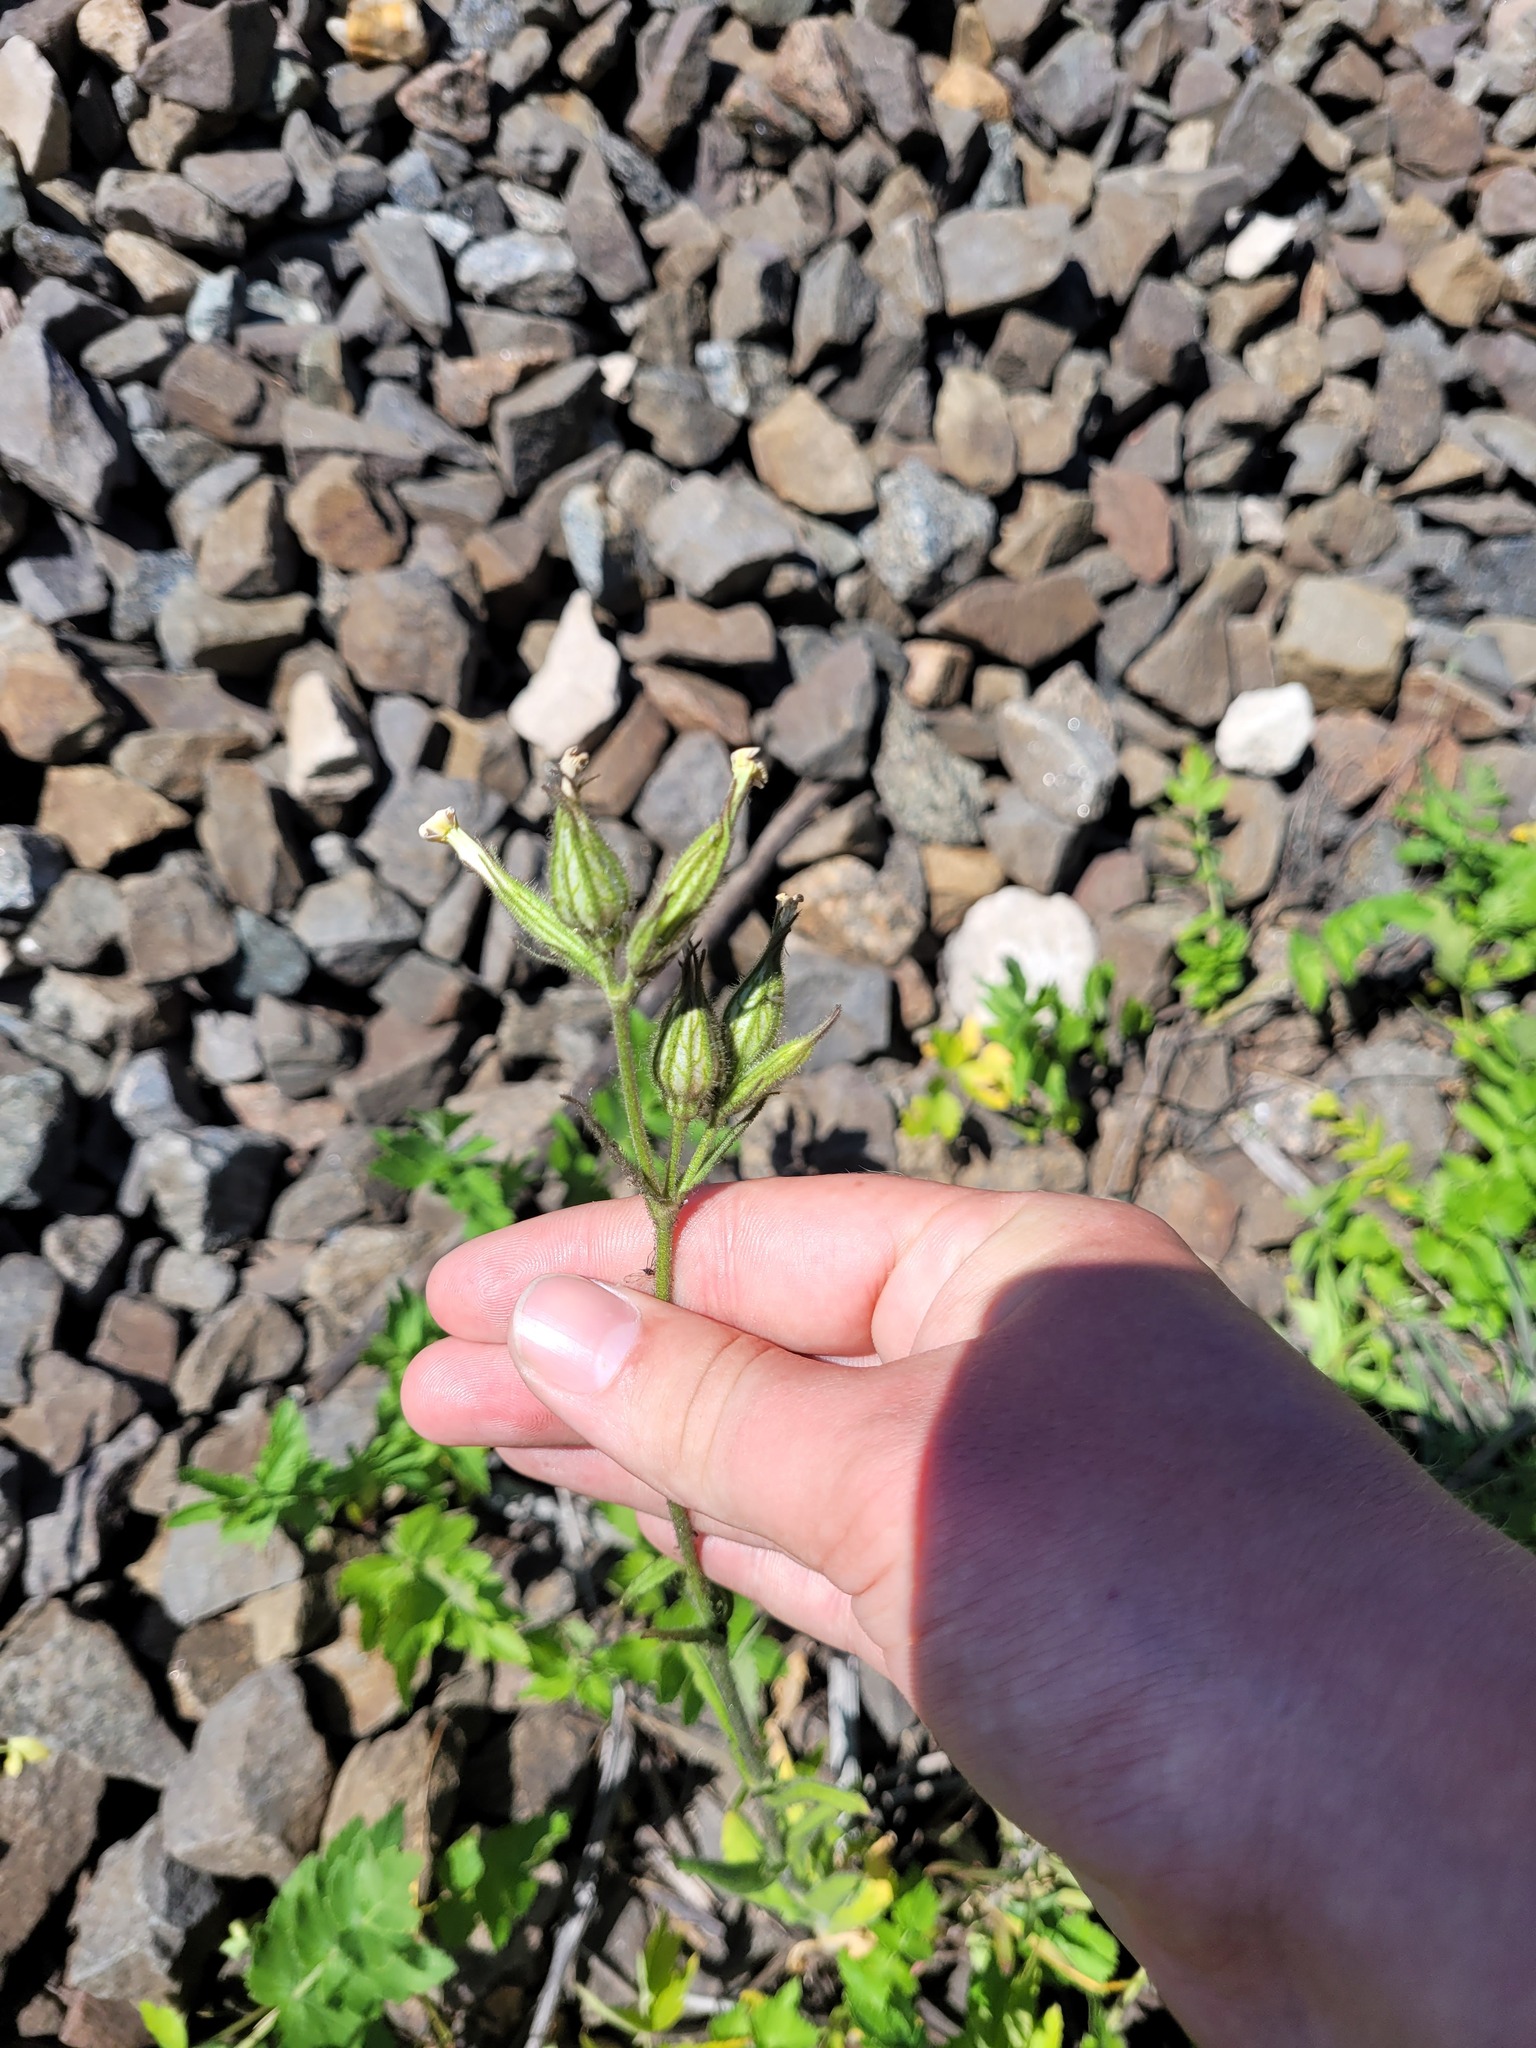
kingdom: Plantae
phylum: Tracheophyta
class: Magnoliopsida
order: Caryophyllales
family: Caryophyllaceae
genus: Silene
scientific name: Silene noctiflora
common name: Night-flowering catchfly
